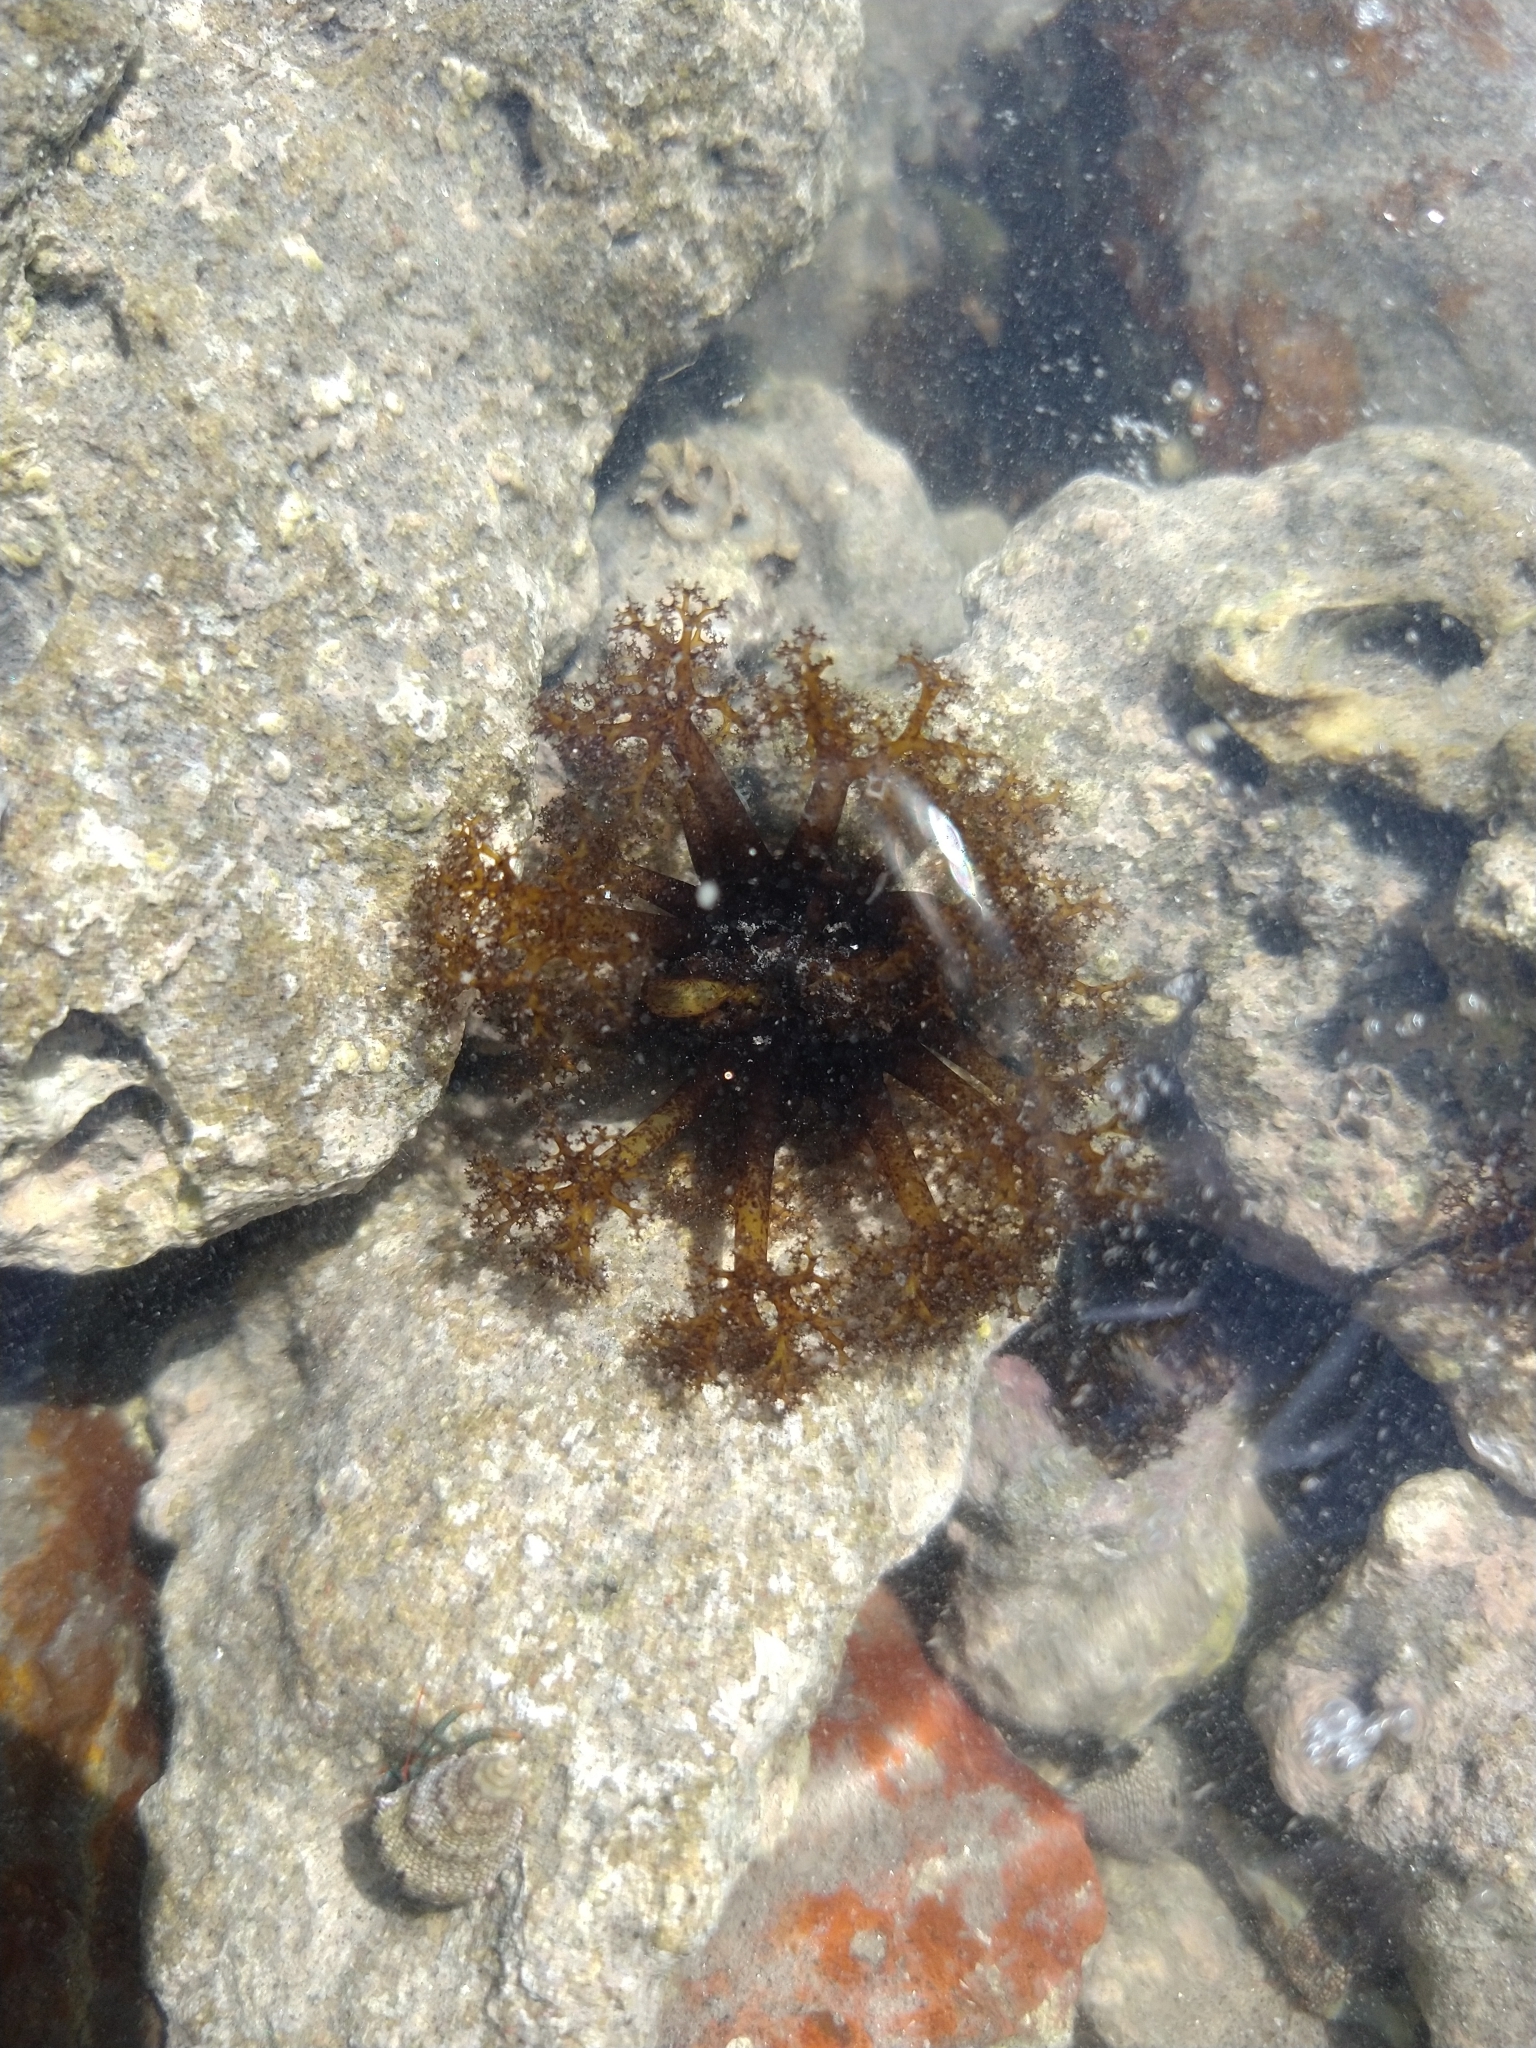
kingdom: Animalia
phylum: Echinodermata
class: Holothuroidea
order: Holothuriida
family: Holothuriidae
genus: Holothuria
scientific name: Holothuria lubrica
